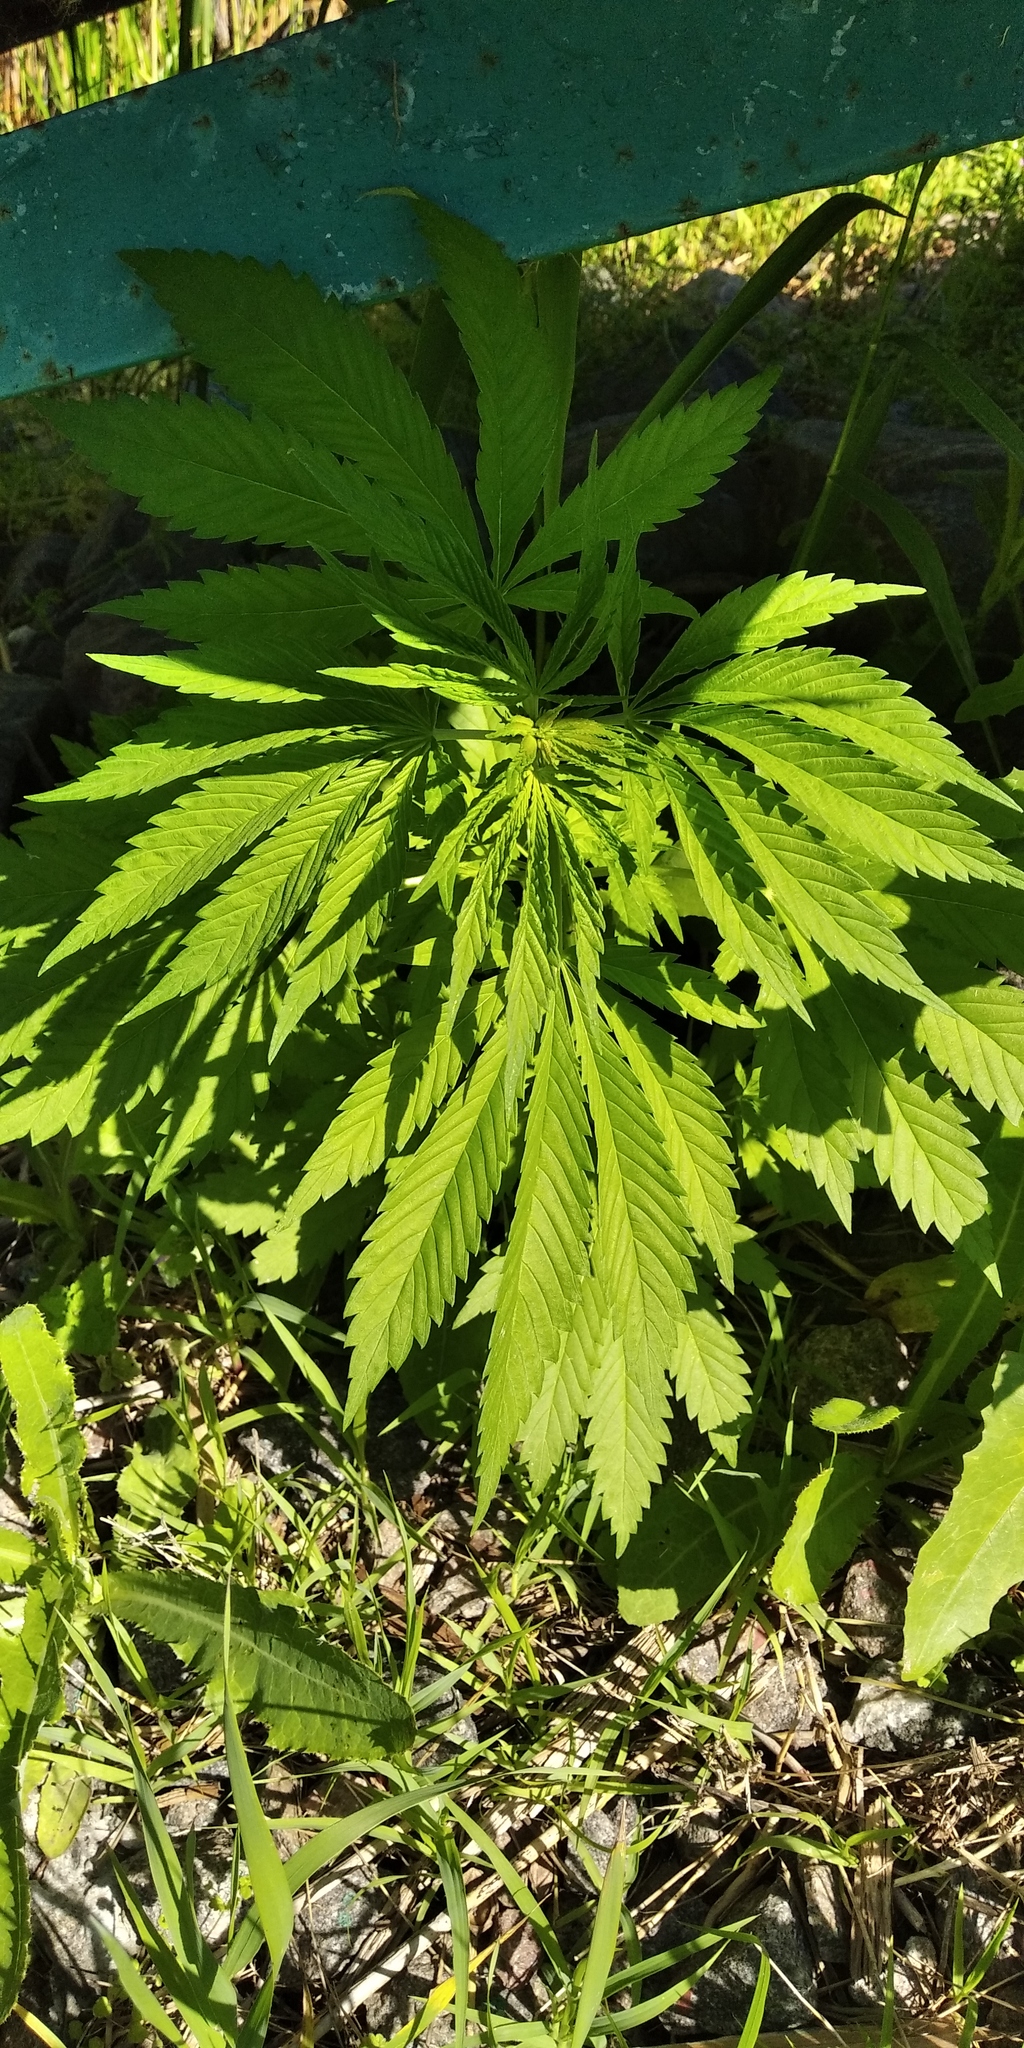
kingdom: Plantae
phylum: Tracheophyta
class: Magnoliopsida
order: Rosales
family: Cannabaceae
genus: Cannabis
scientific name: Cannabis sativa
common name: Hemp
